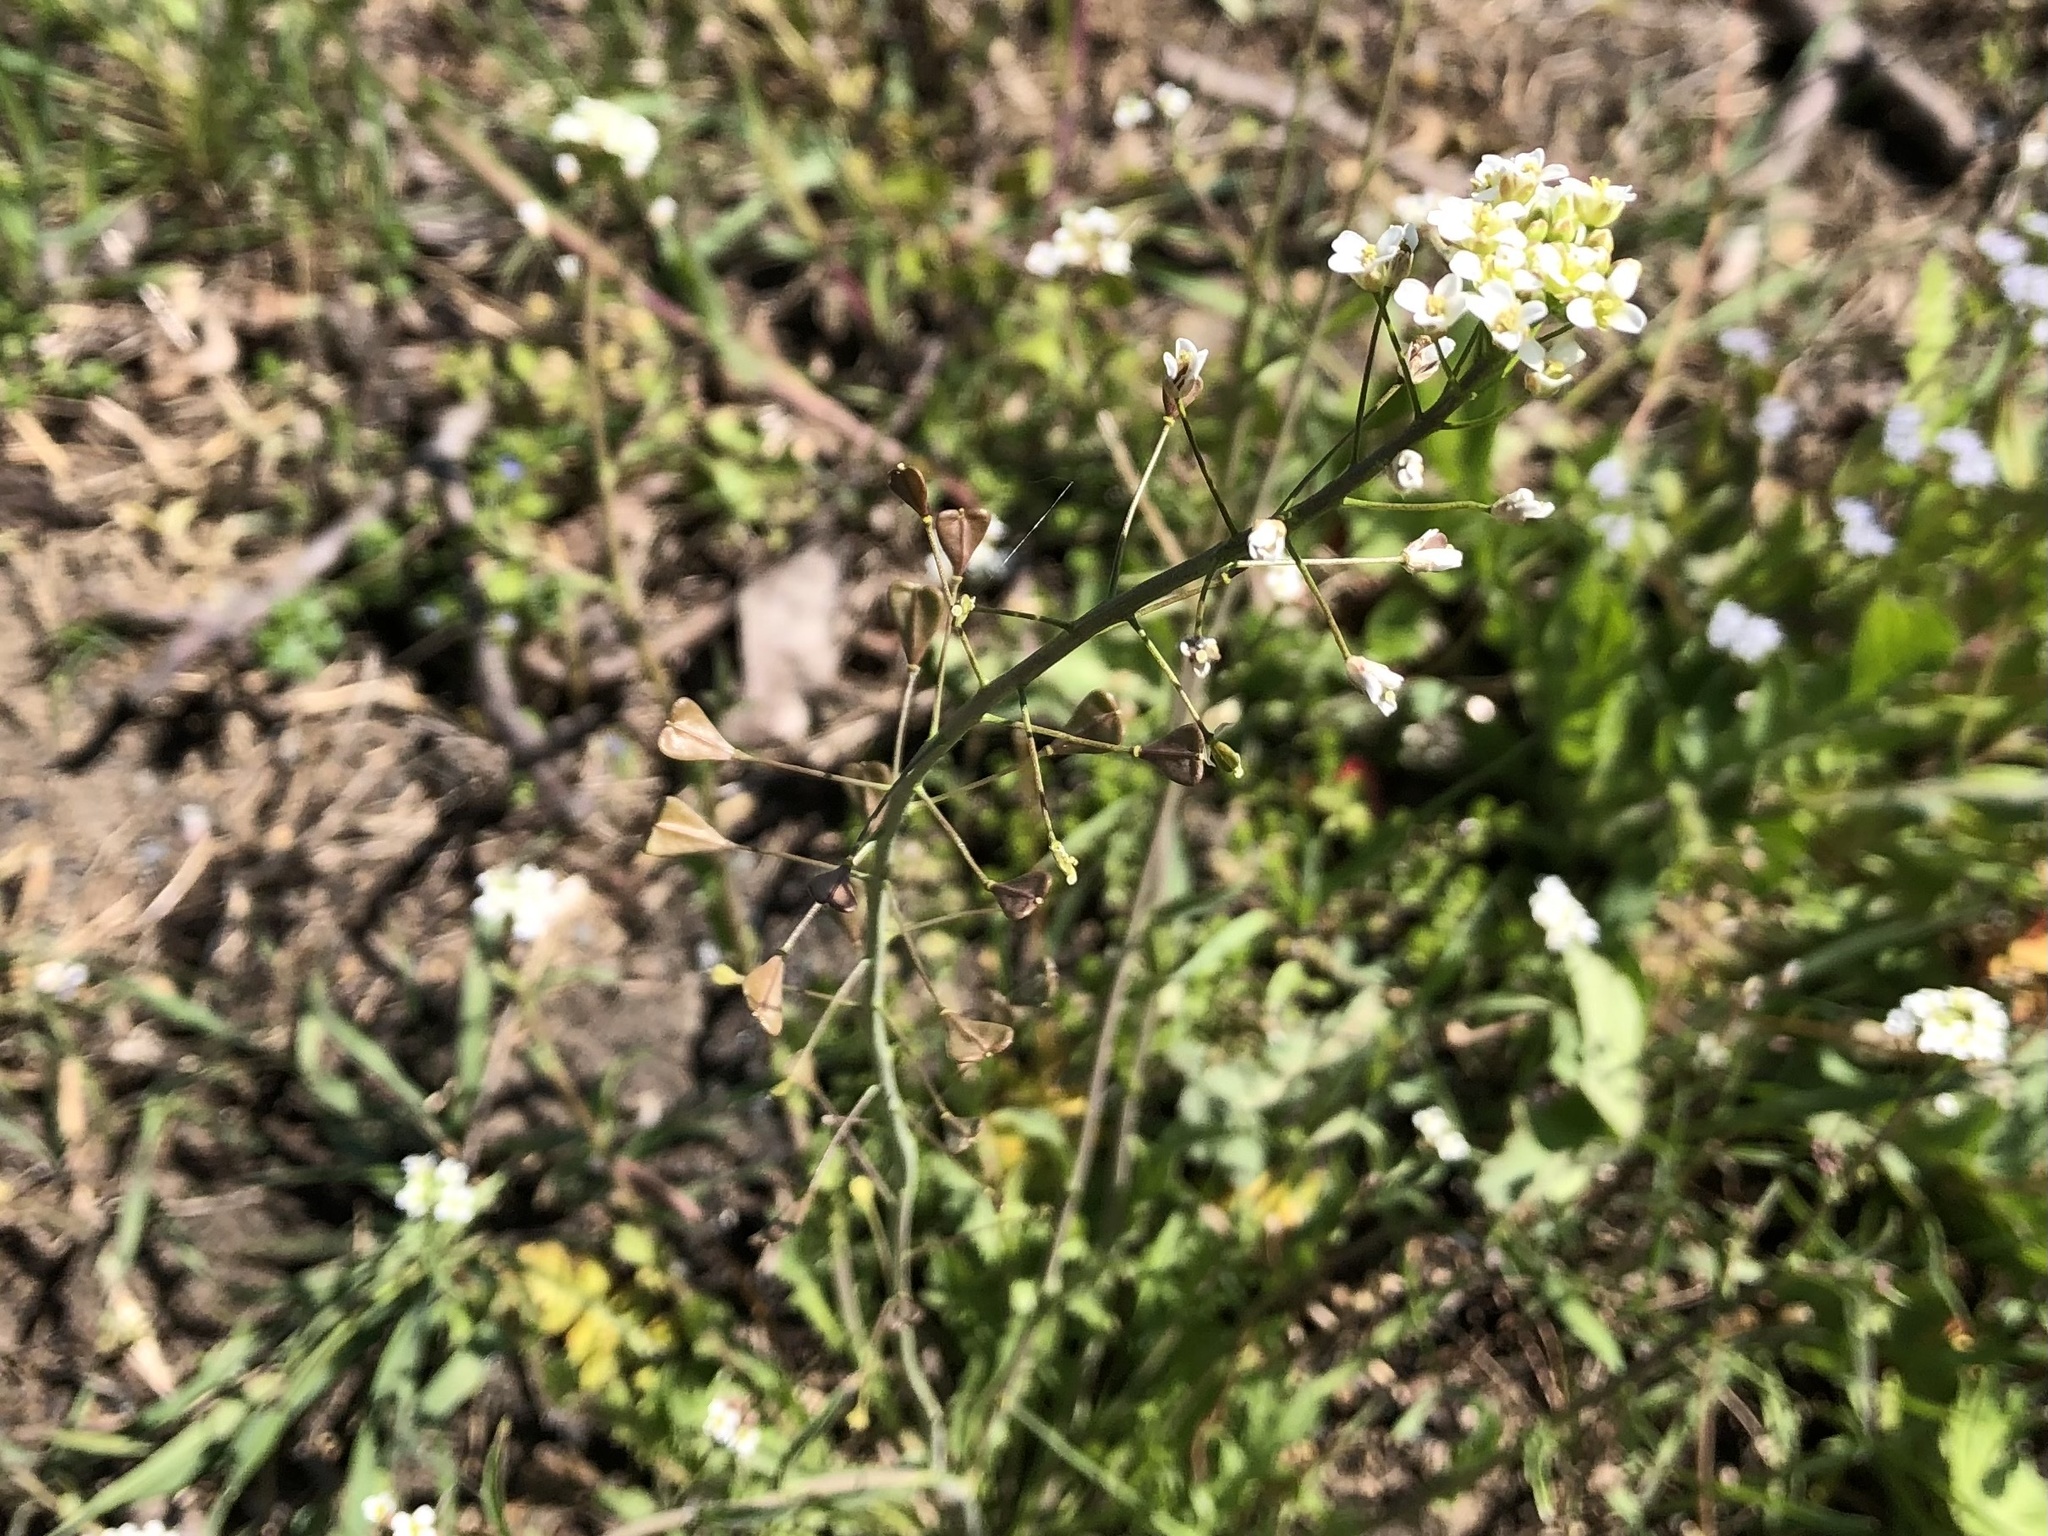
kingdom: Plantae
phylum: Tracheophyta
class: Magnoliopsida
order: Brassicales
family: Brassicaceae
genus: Capsella
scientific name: Capsella bursa-pastoris
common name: Shepherd's purse
